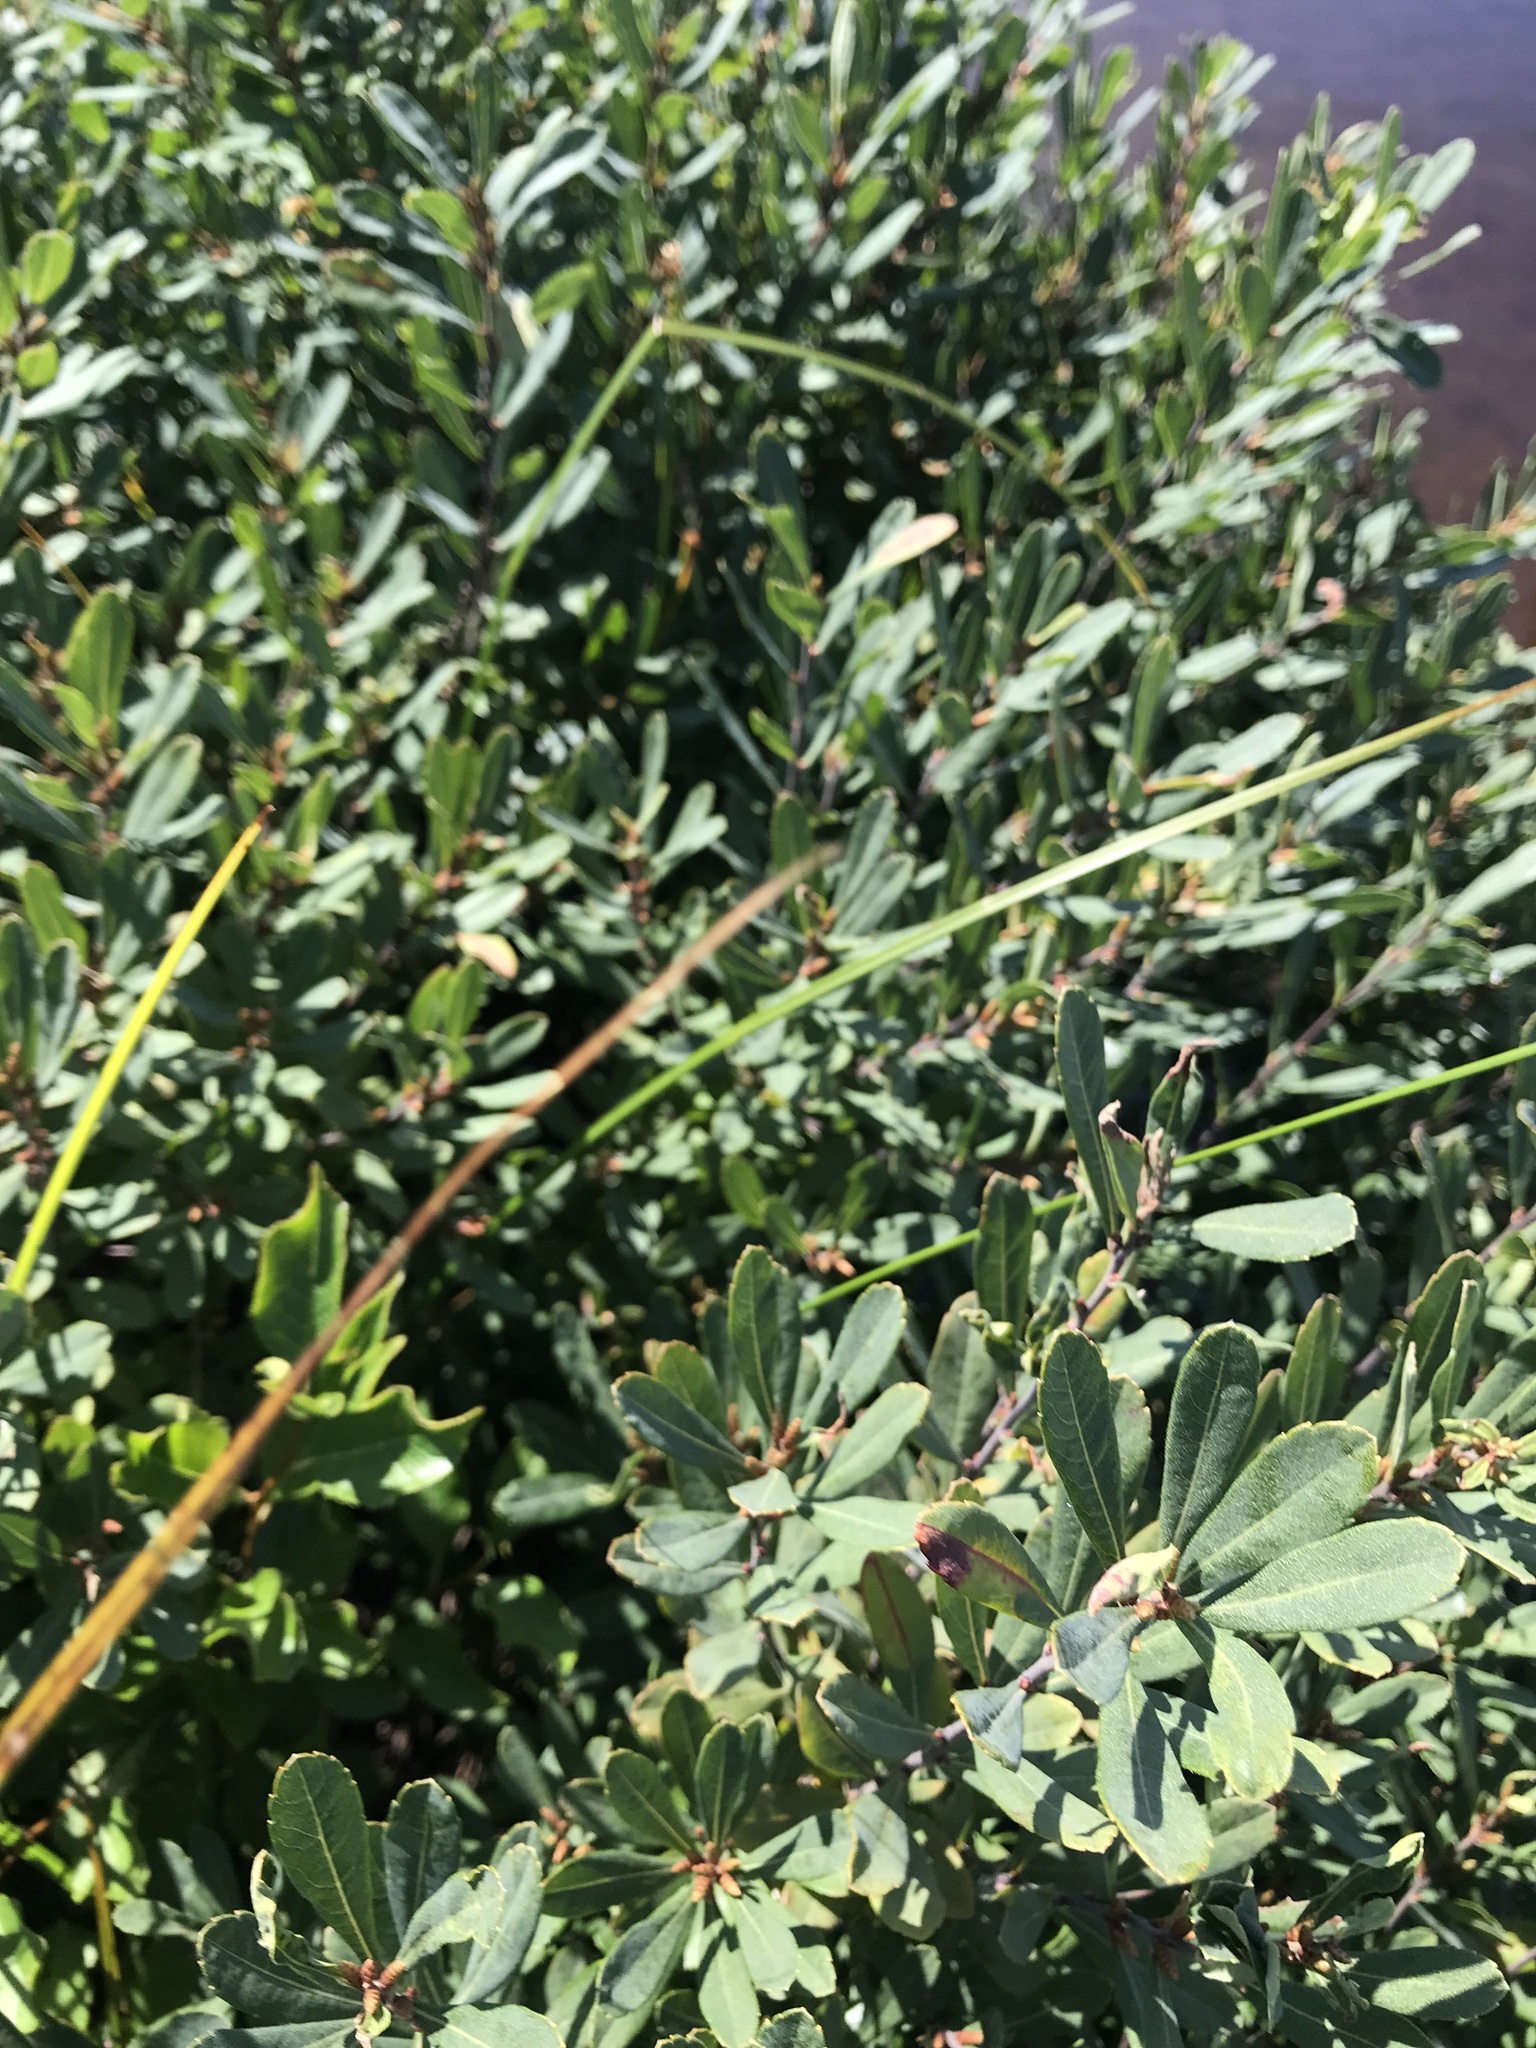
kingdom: Plantae
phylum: Tracheophyta
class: Magnoliopsida
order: Fagales
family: Myricaceae
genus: Myrica
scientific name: Myrica gale
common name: Sweet gale
